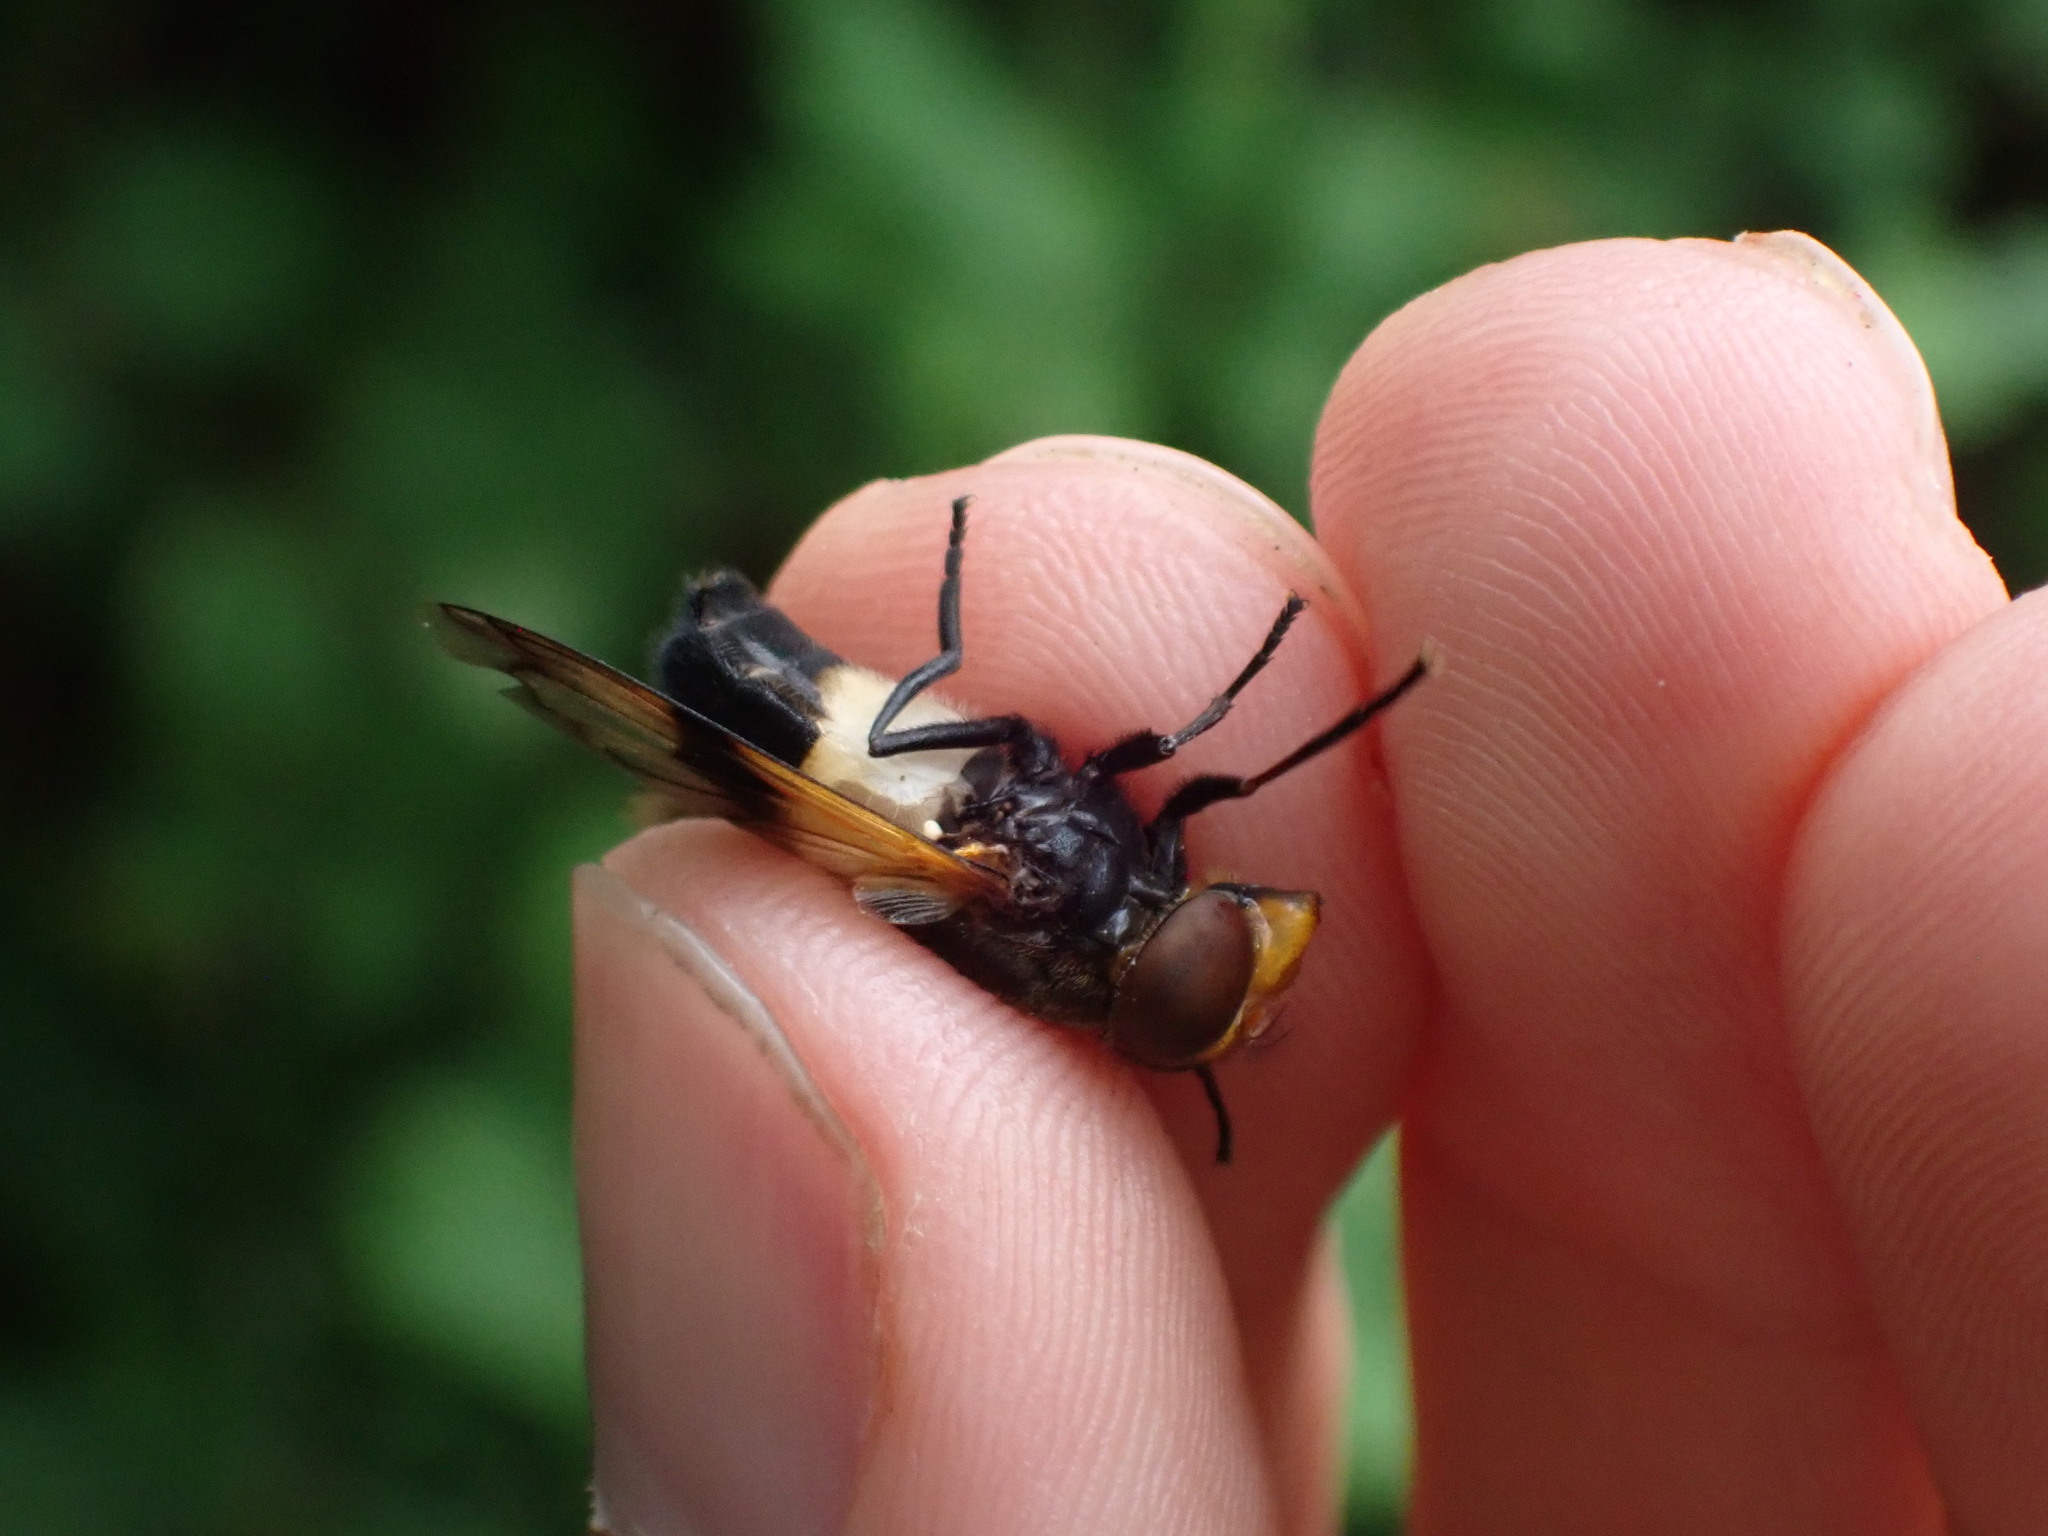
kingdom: Animalia
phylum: Arthropoda
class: Insecta
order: Diptera
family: Syrphidae
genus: Volucella
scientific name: Volucella pellucens
